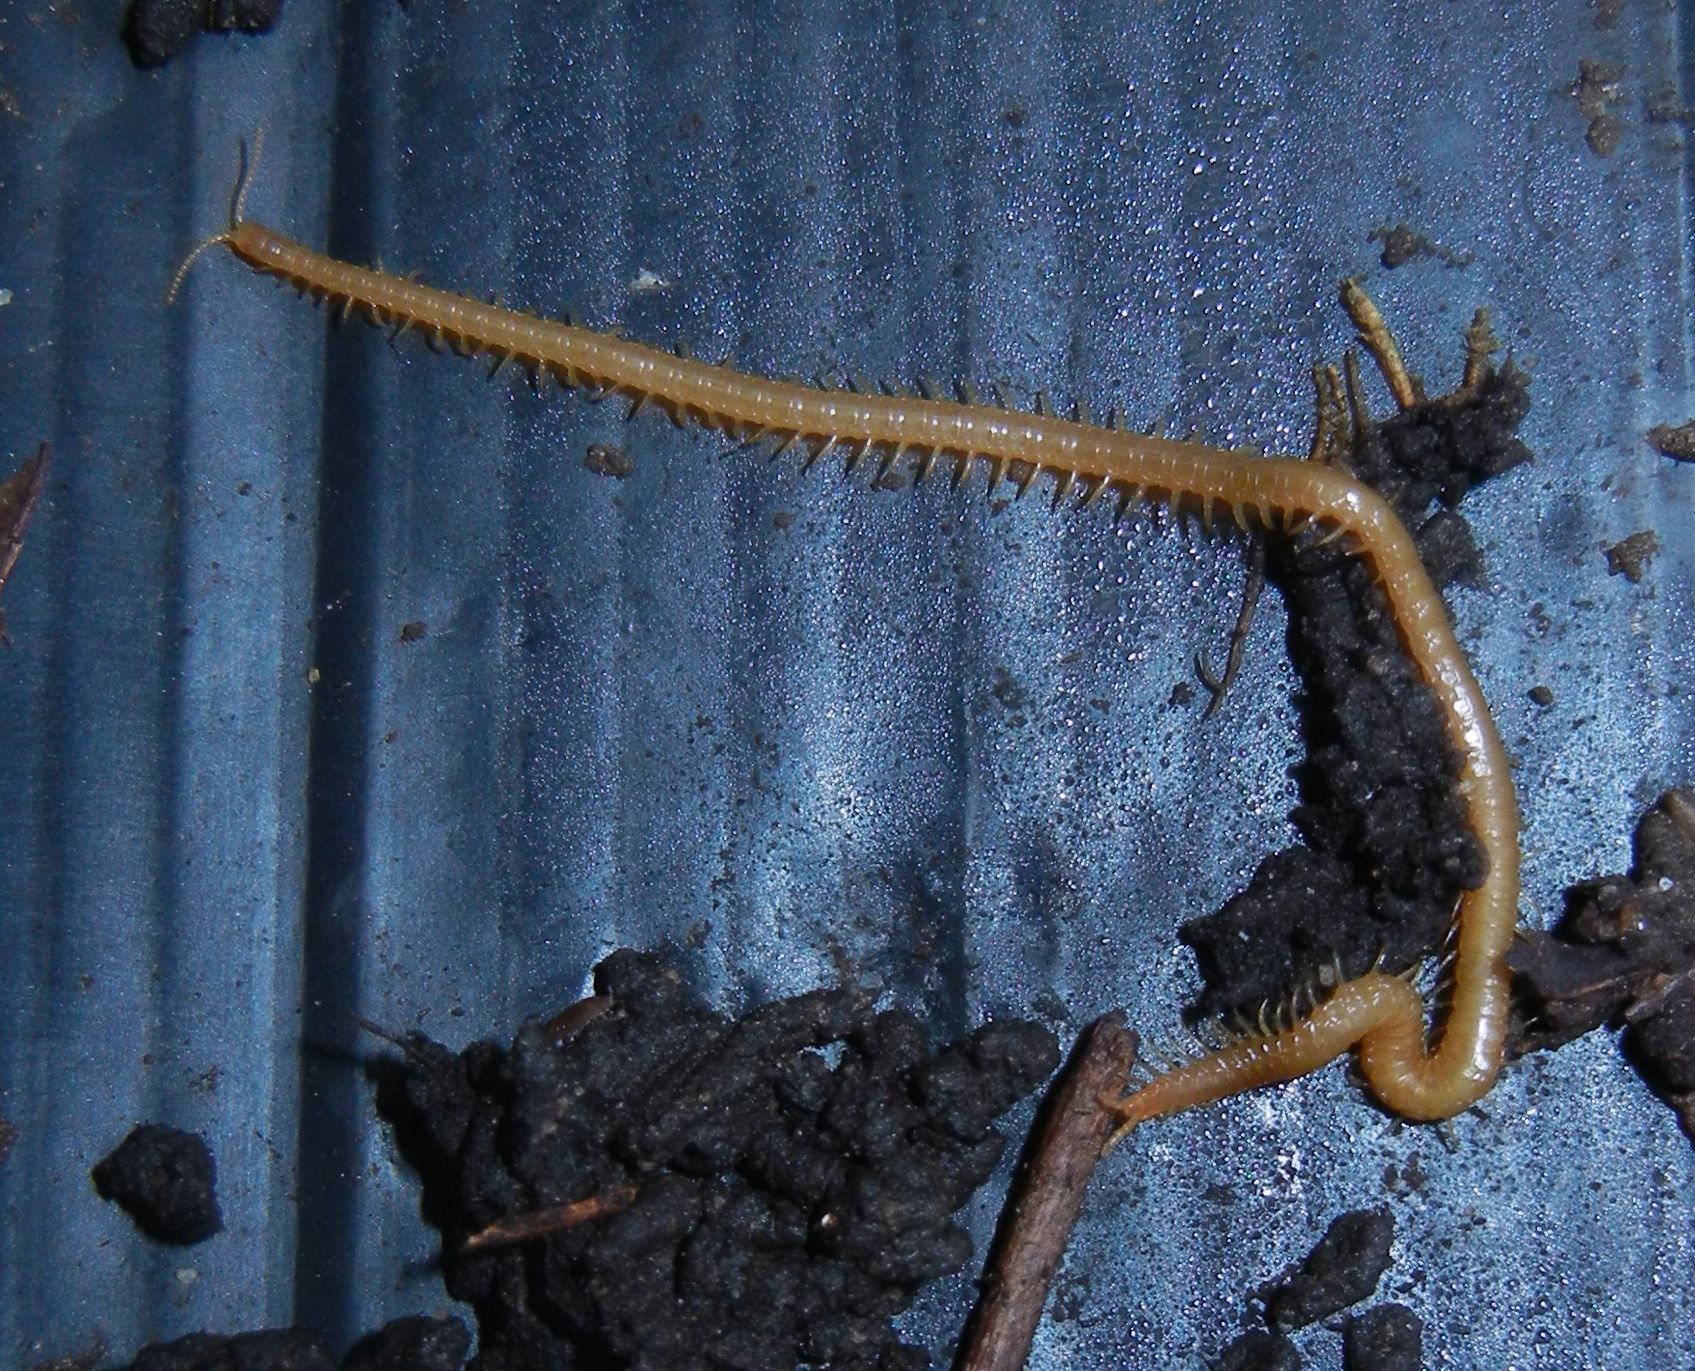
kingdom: Animalia
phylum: Arthropoda
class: Chilopoda
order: Geophilomorpha
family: Himantariidae
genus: Stigmatogaster
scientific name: Stigmatogaster subterranea
